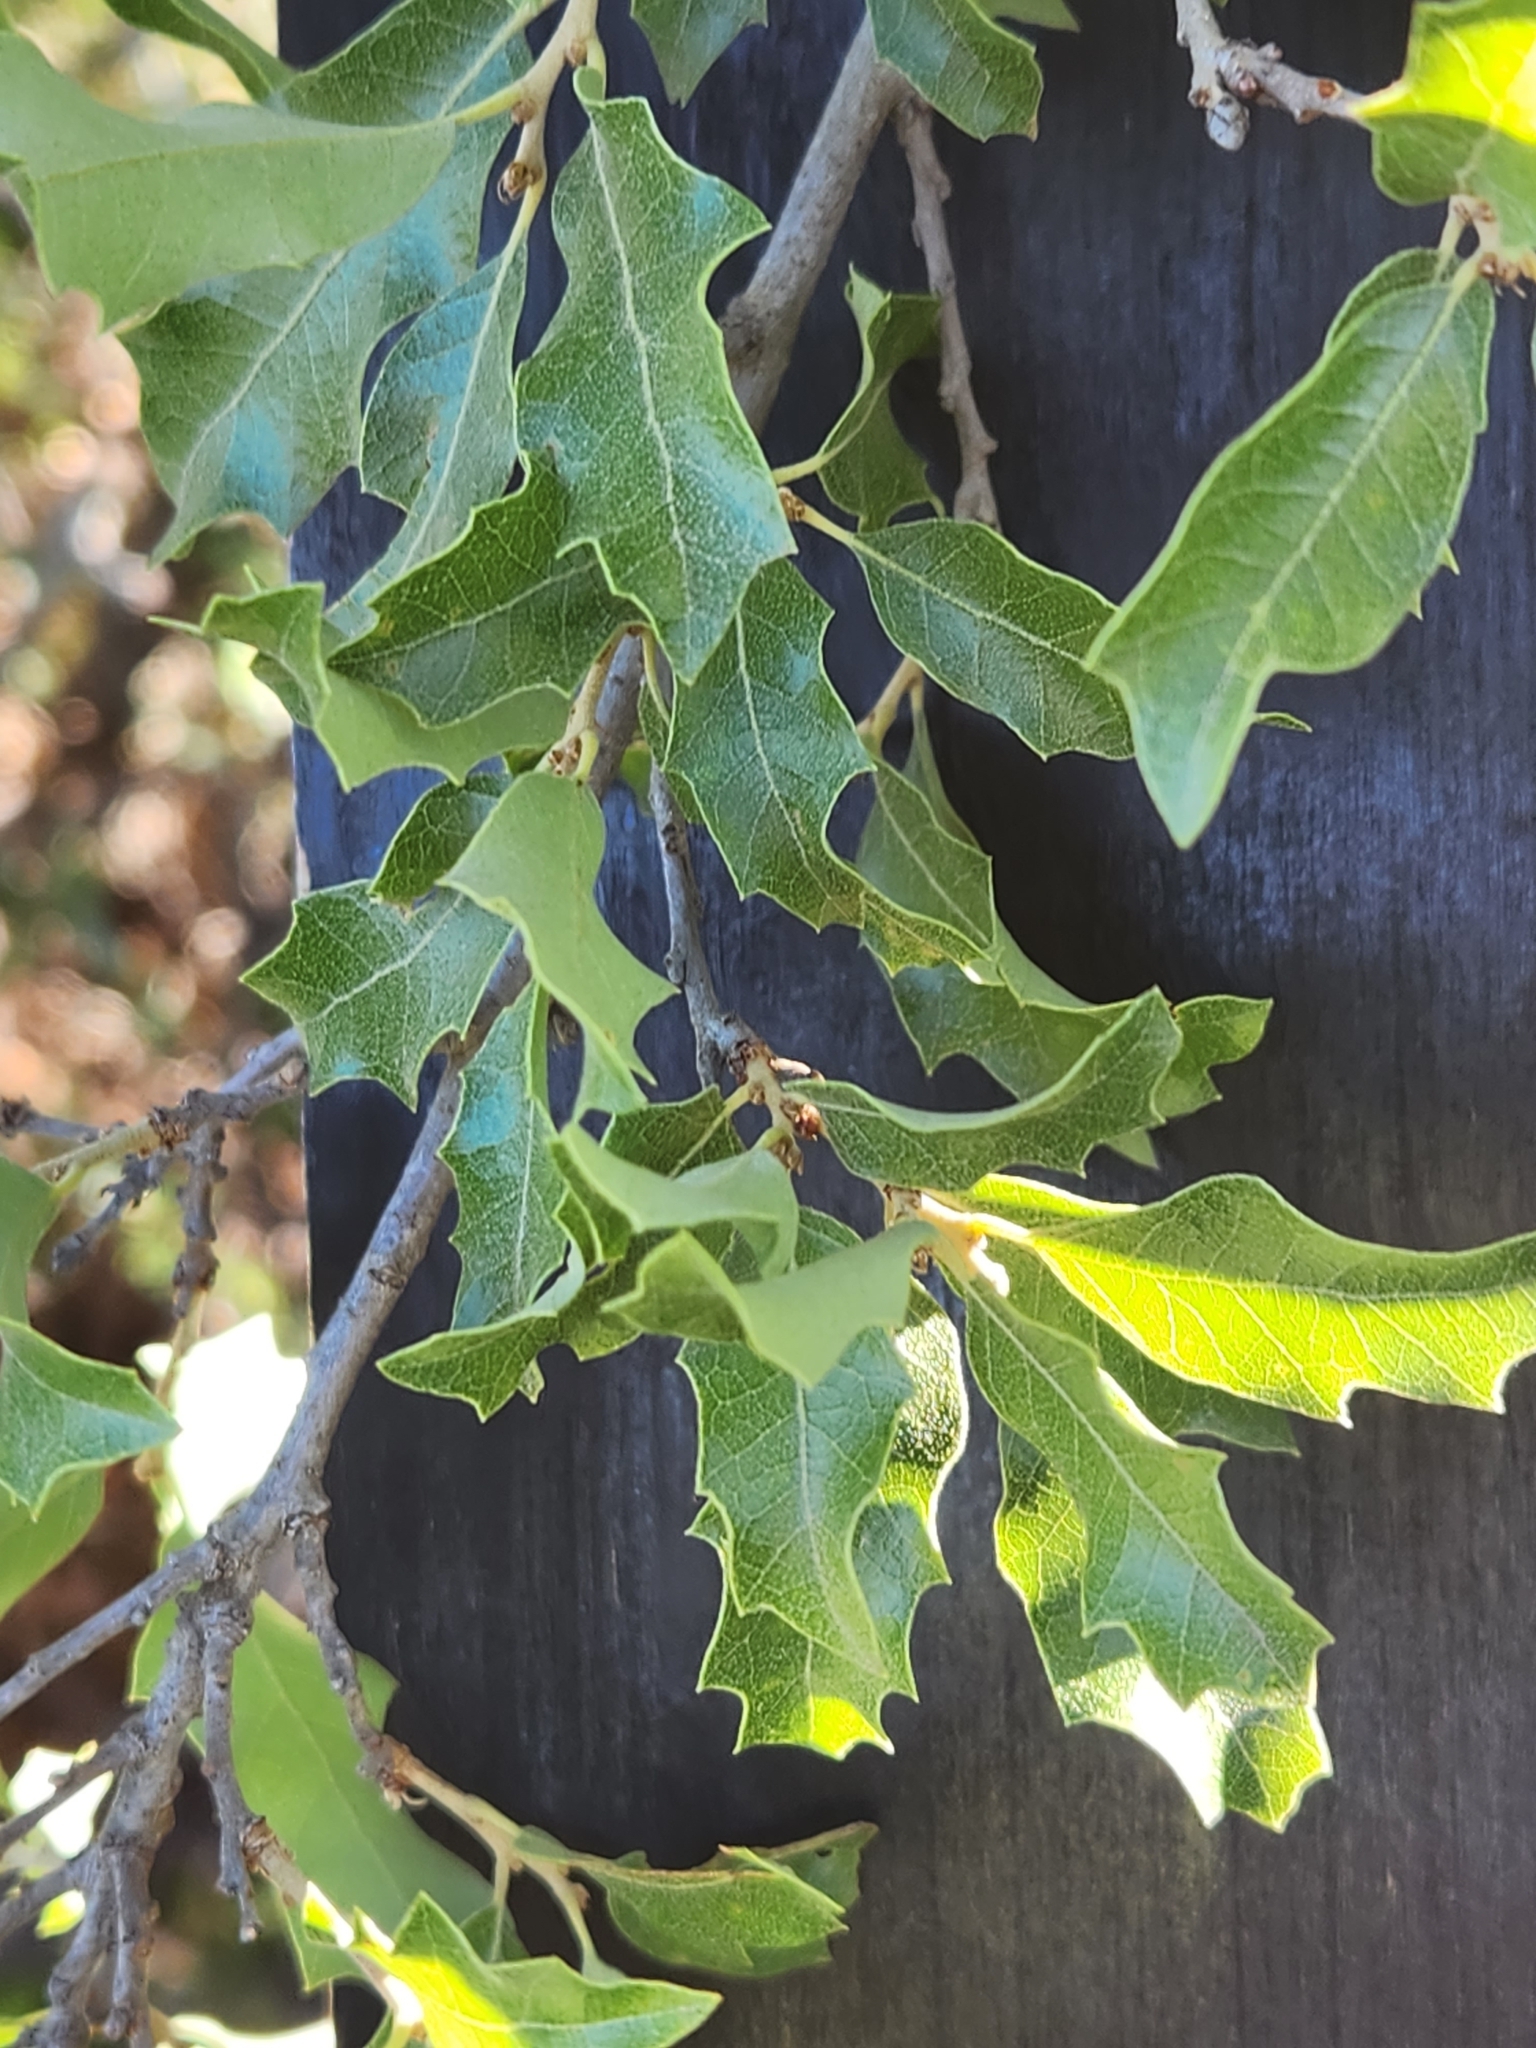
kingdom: Plantae
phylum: Tracheophyta
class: Magnoliopsida
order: Fagales
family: Fagaceae
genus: Quercus
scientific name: Quercus vaseyana
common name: Sandpaper oak
